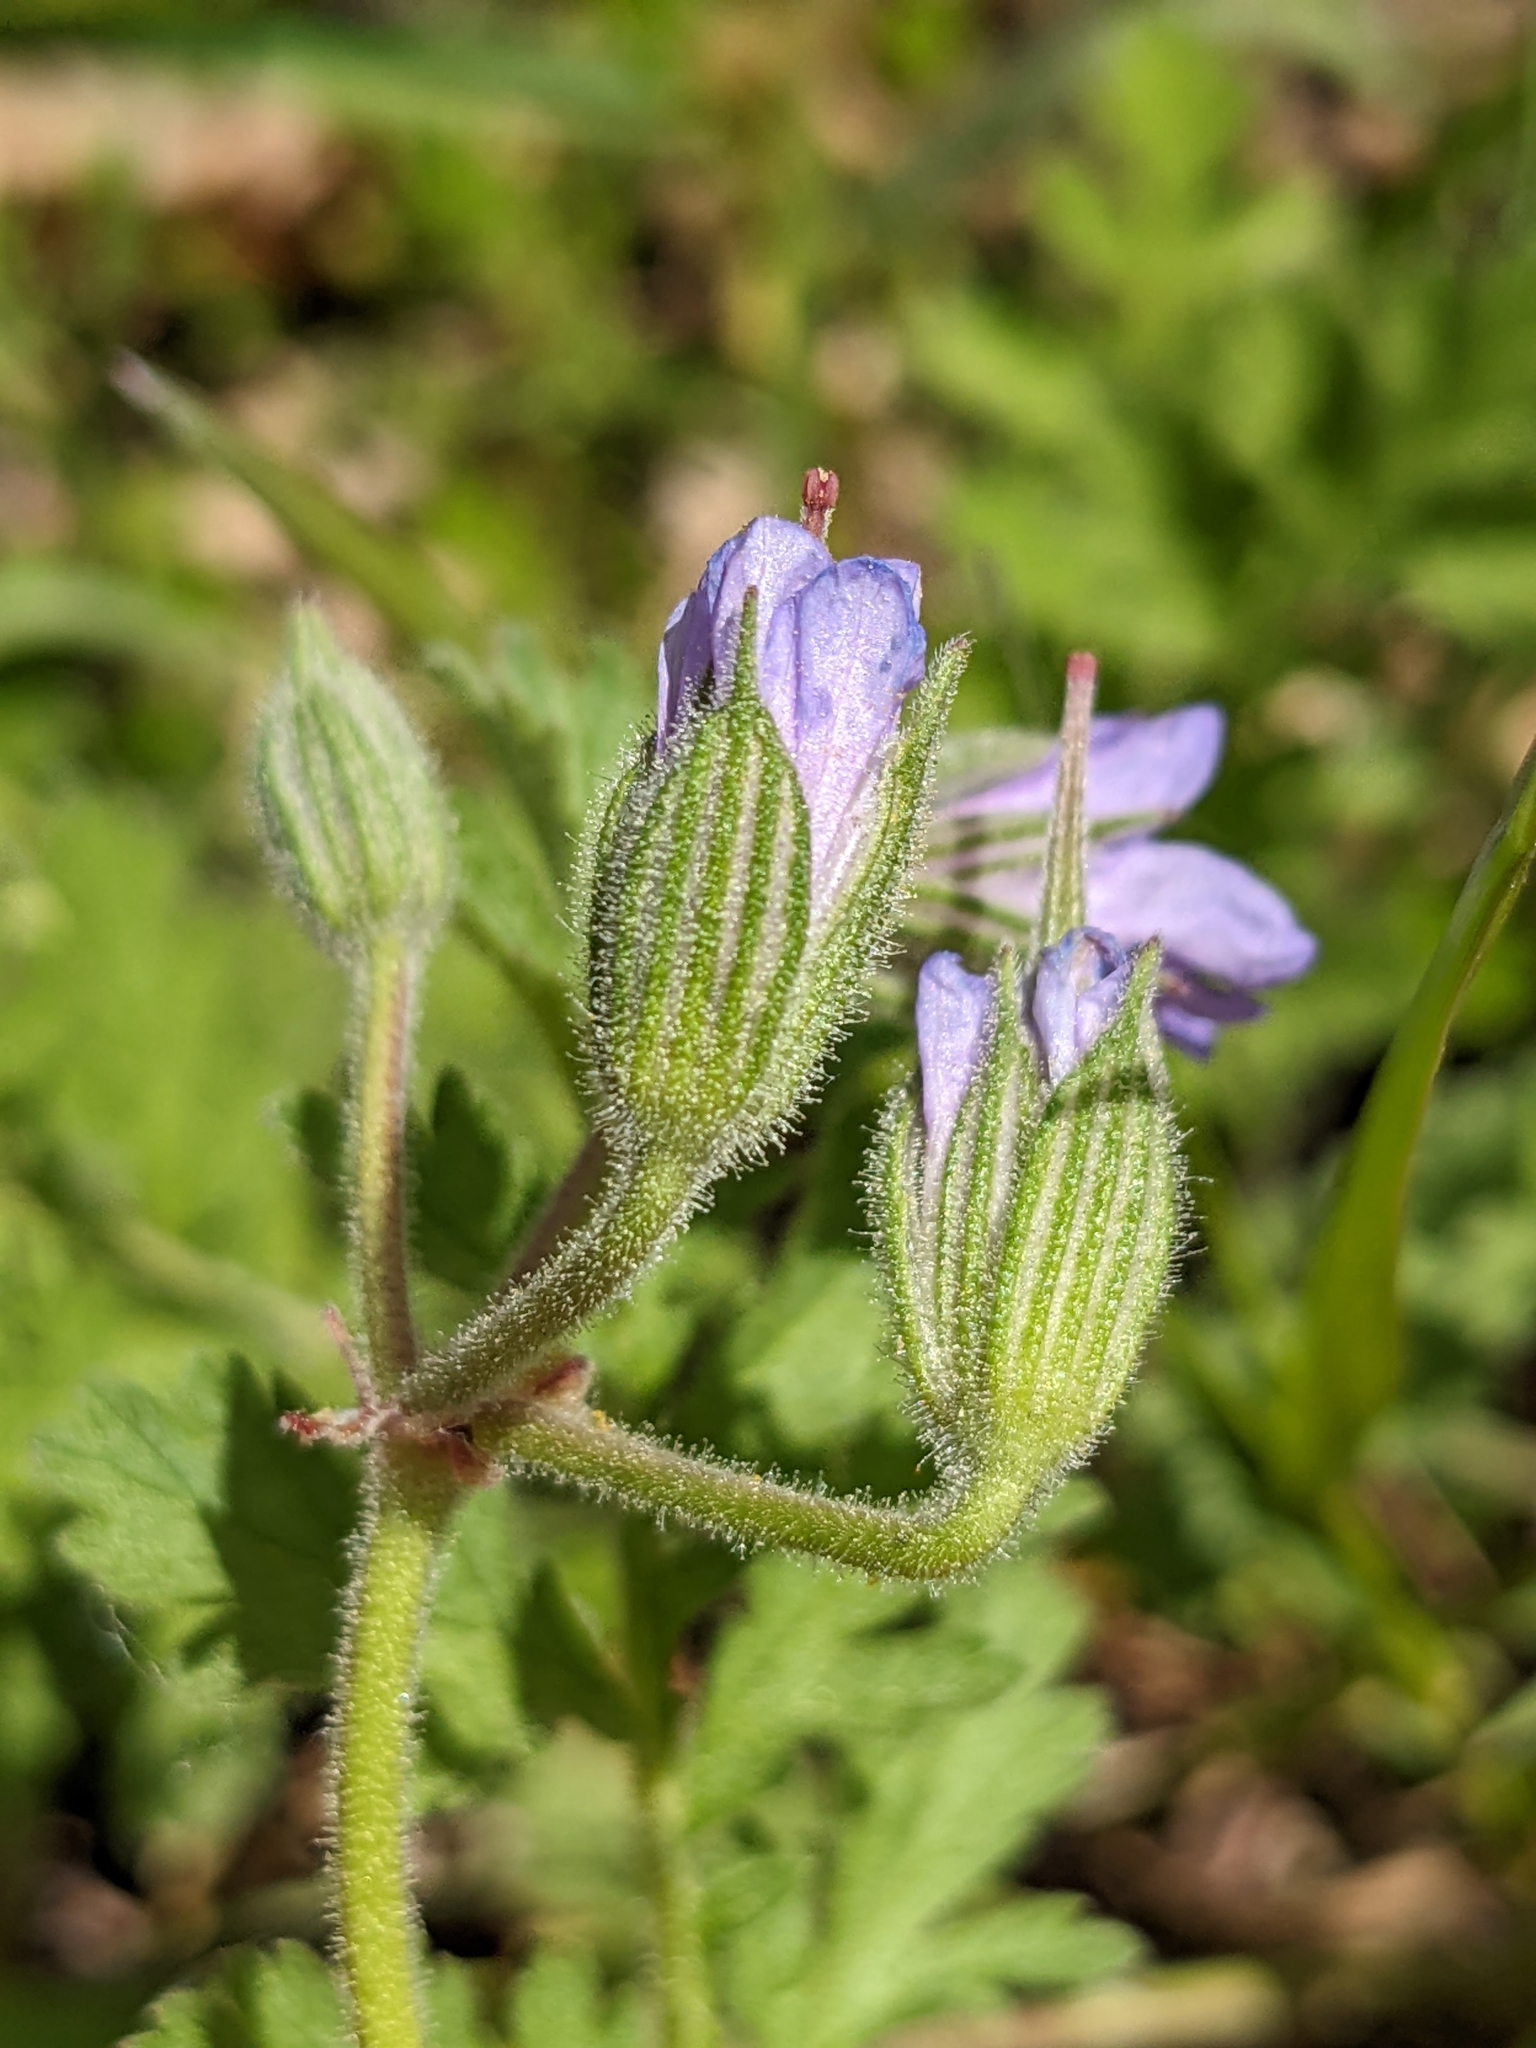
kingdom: Plantae
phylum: Tracheophyta
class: Magnoliopsida
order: Geraniales
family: Geraniaceae
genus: Erodium
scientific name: Erodium ciconium
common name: Common stork's bill
